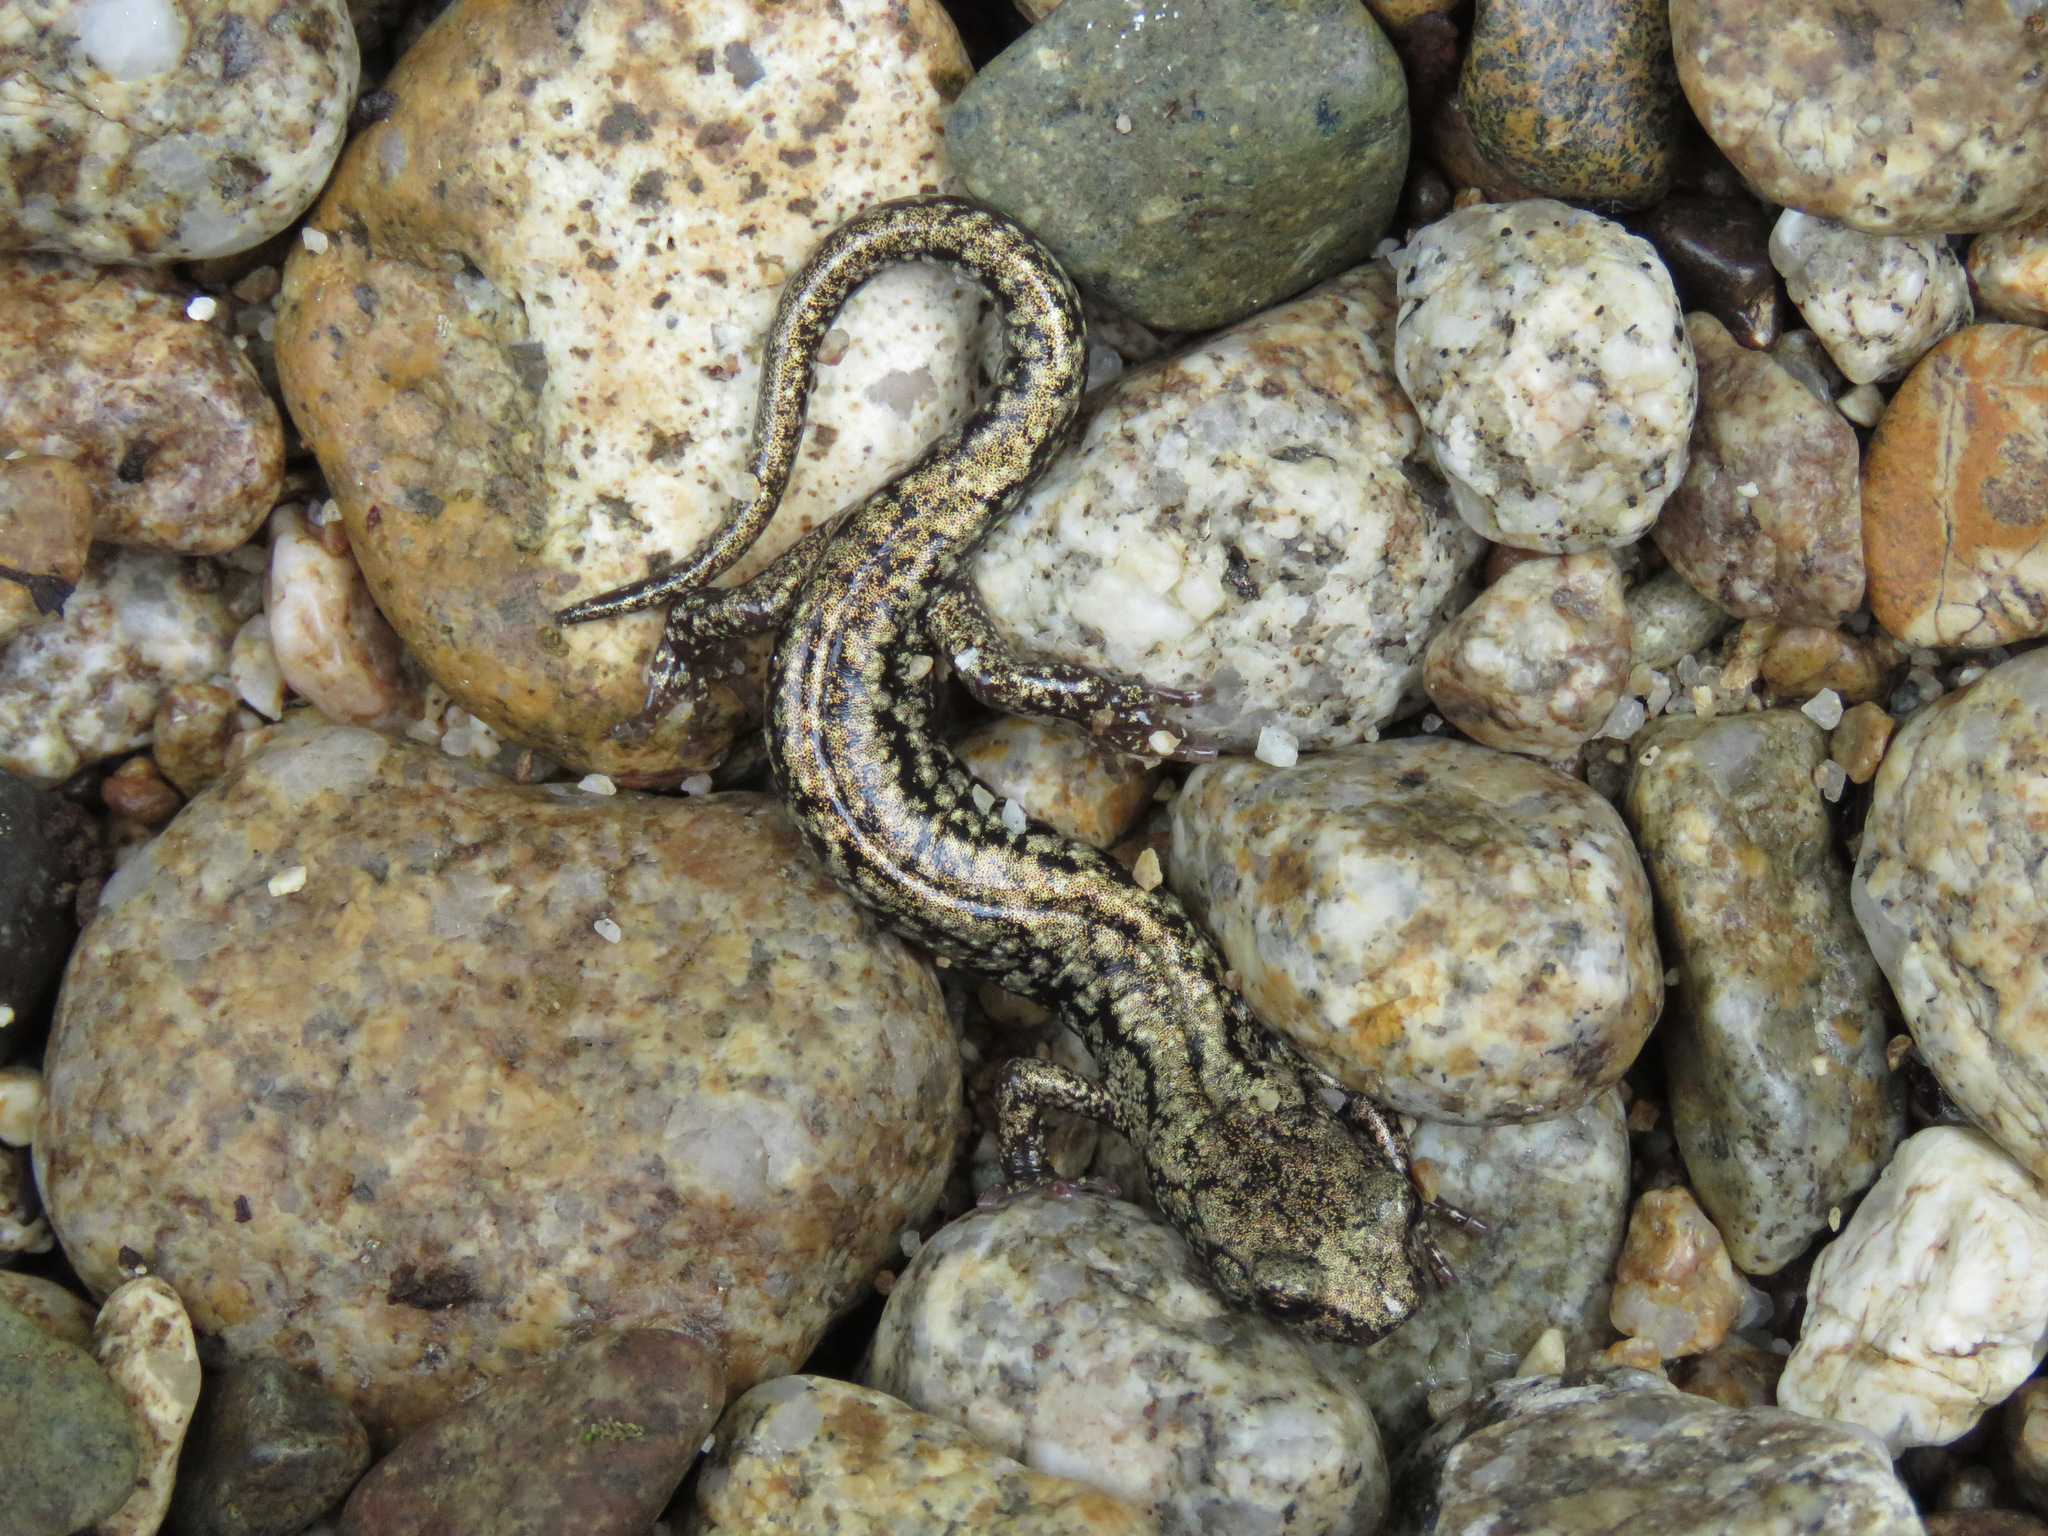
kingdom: Animalia
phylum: Chordata
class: Amphibia
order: Caudata
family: Plethodontidae
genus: Aneides
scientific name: Aneides vagrans
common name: Wandering salamander
